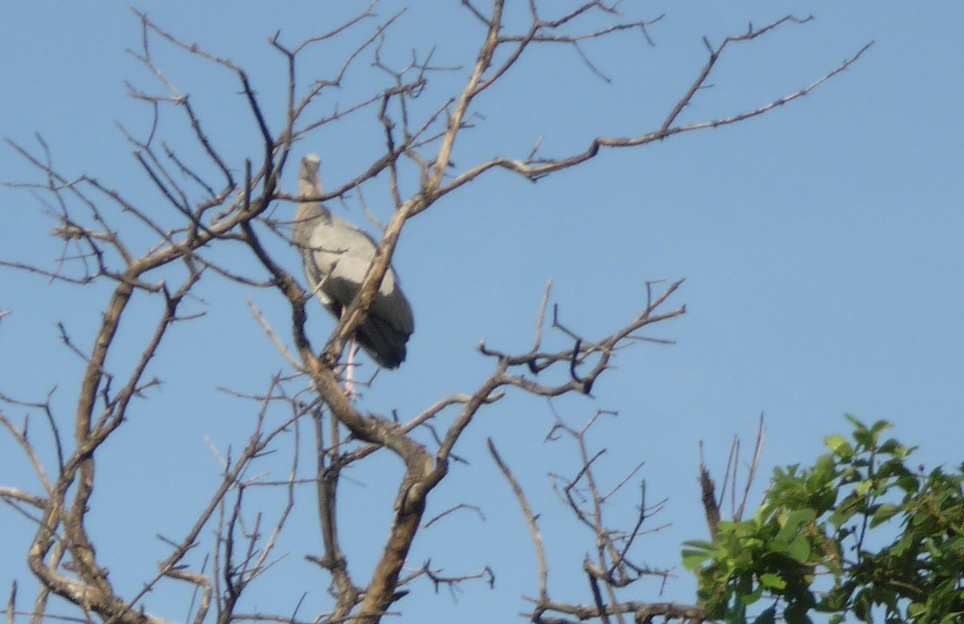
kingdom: Animalia
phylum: Chordata
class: Aves
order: Ciconiiformes
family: Ciconiidae
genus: Anastomus
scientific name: Anastomus oscitans
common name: Asian openbill
